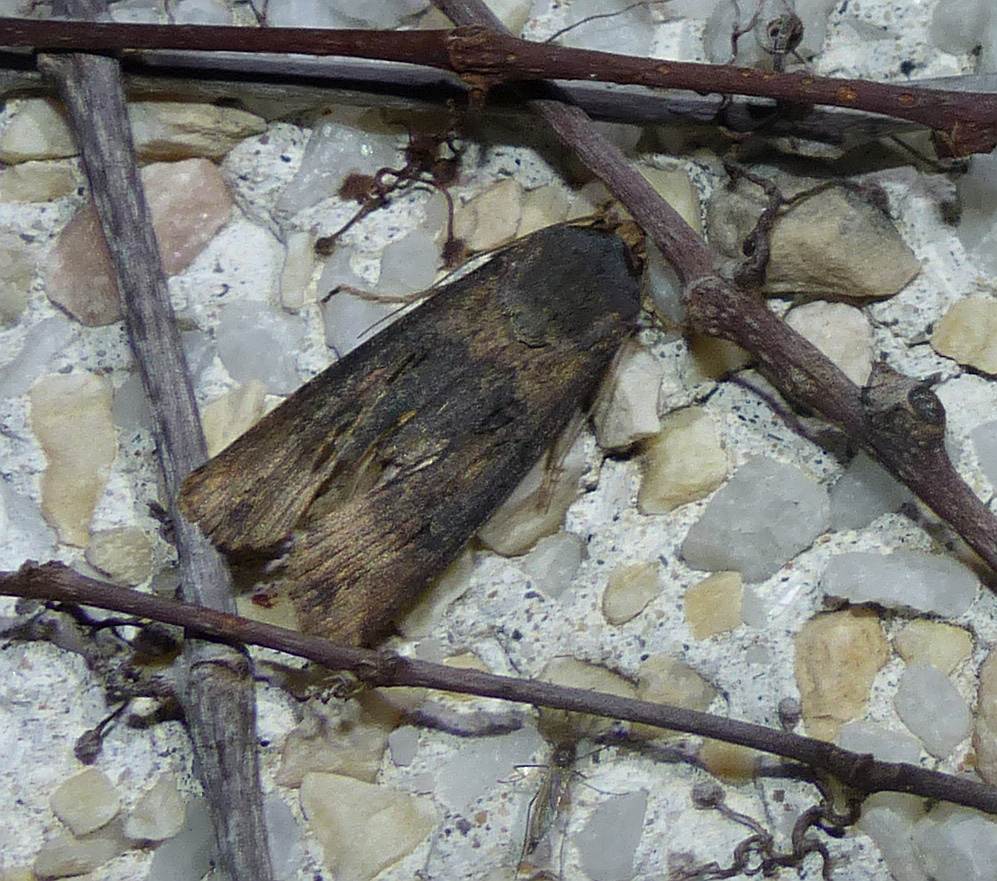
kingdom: Animalia
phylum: Arthropoda
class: Insecta
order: Lepidoptera
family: Noctuidae
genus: Agrotis
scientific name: Agrotis ipsilon
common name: Dark sword-grass
